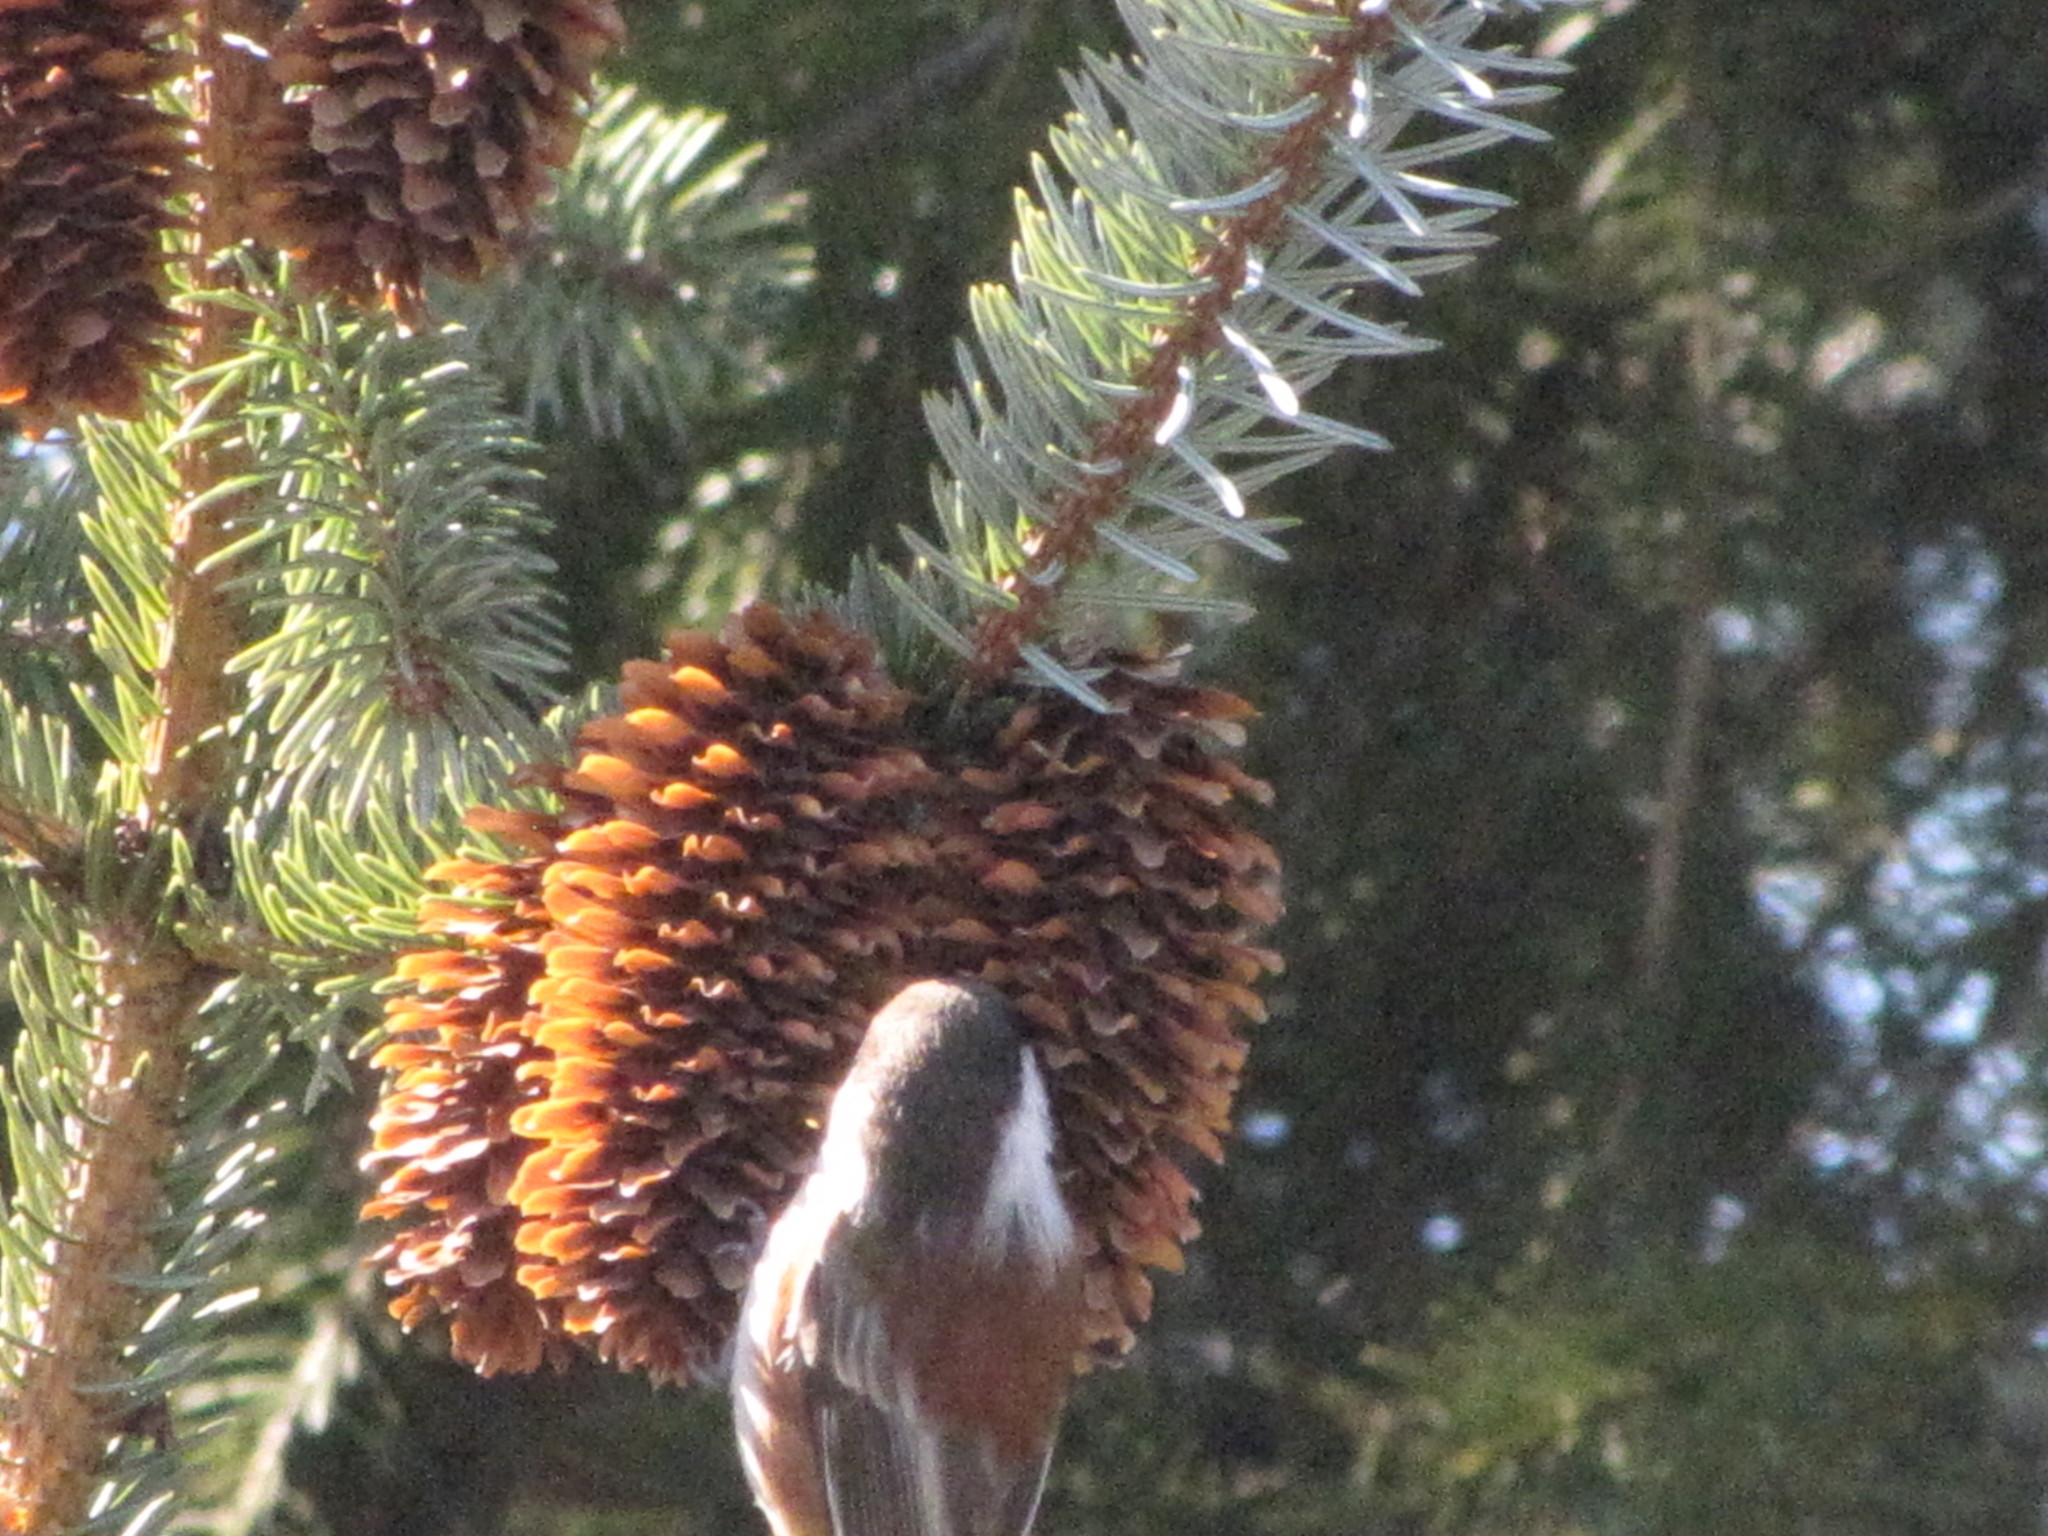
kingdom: Animalia
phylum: Chordata
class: Aves
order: Passeriformes
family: Paridae
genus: Poecile
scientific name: Poecile rufescens
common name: Chestnut-backed chickadee
